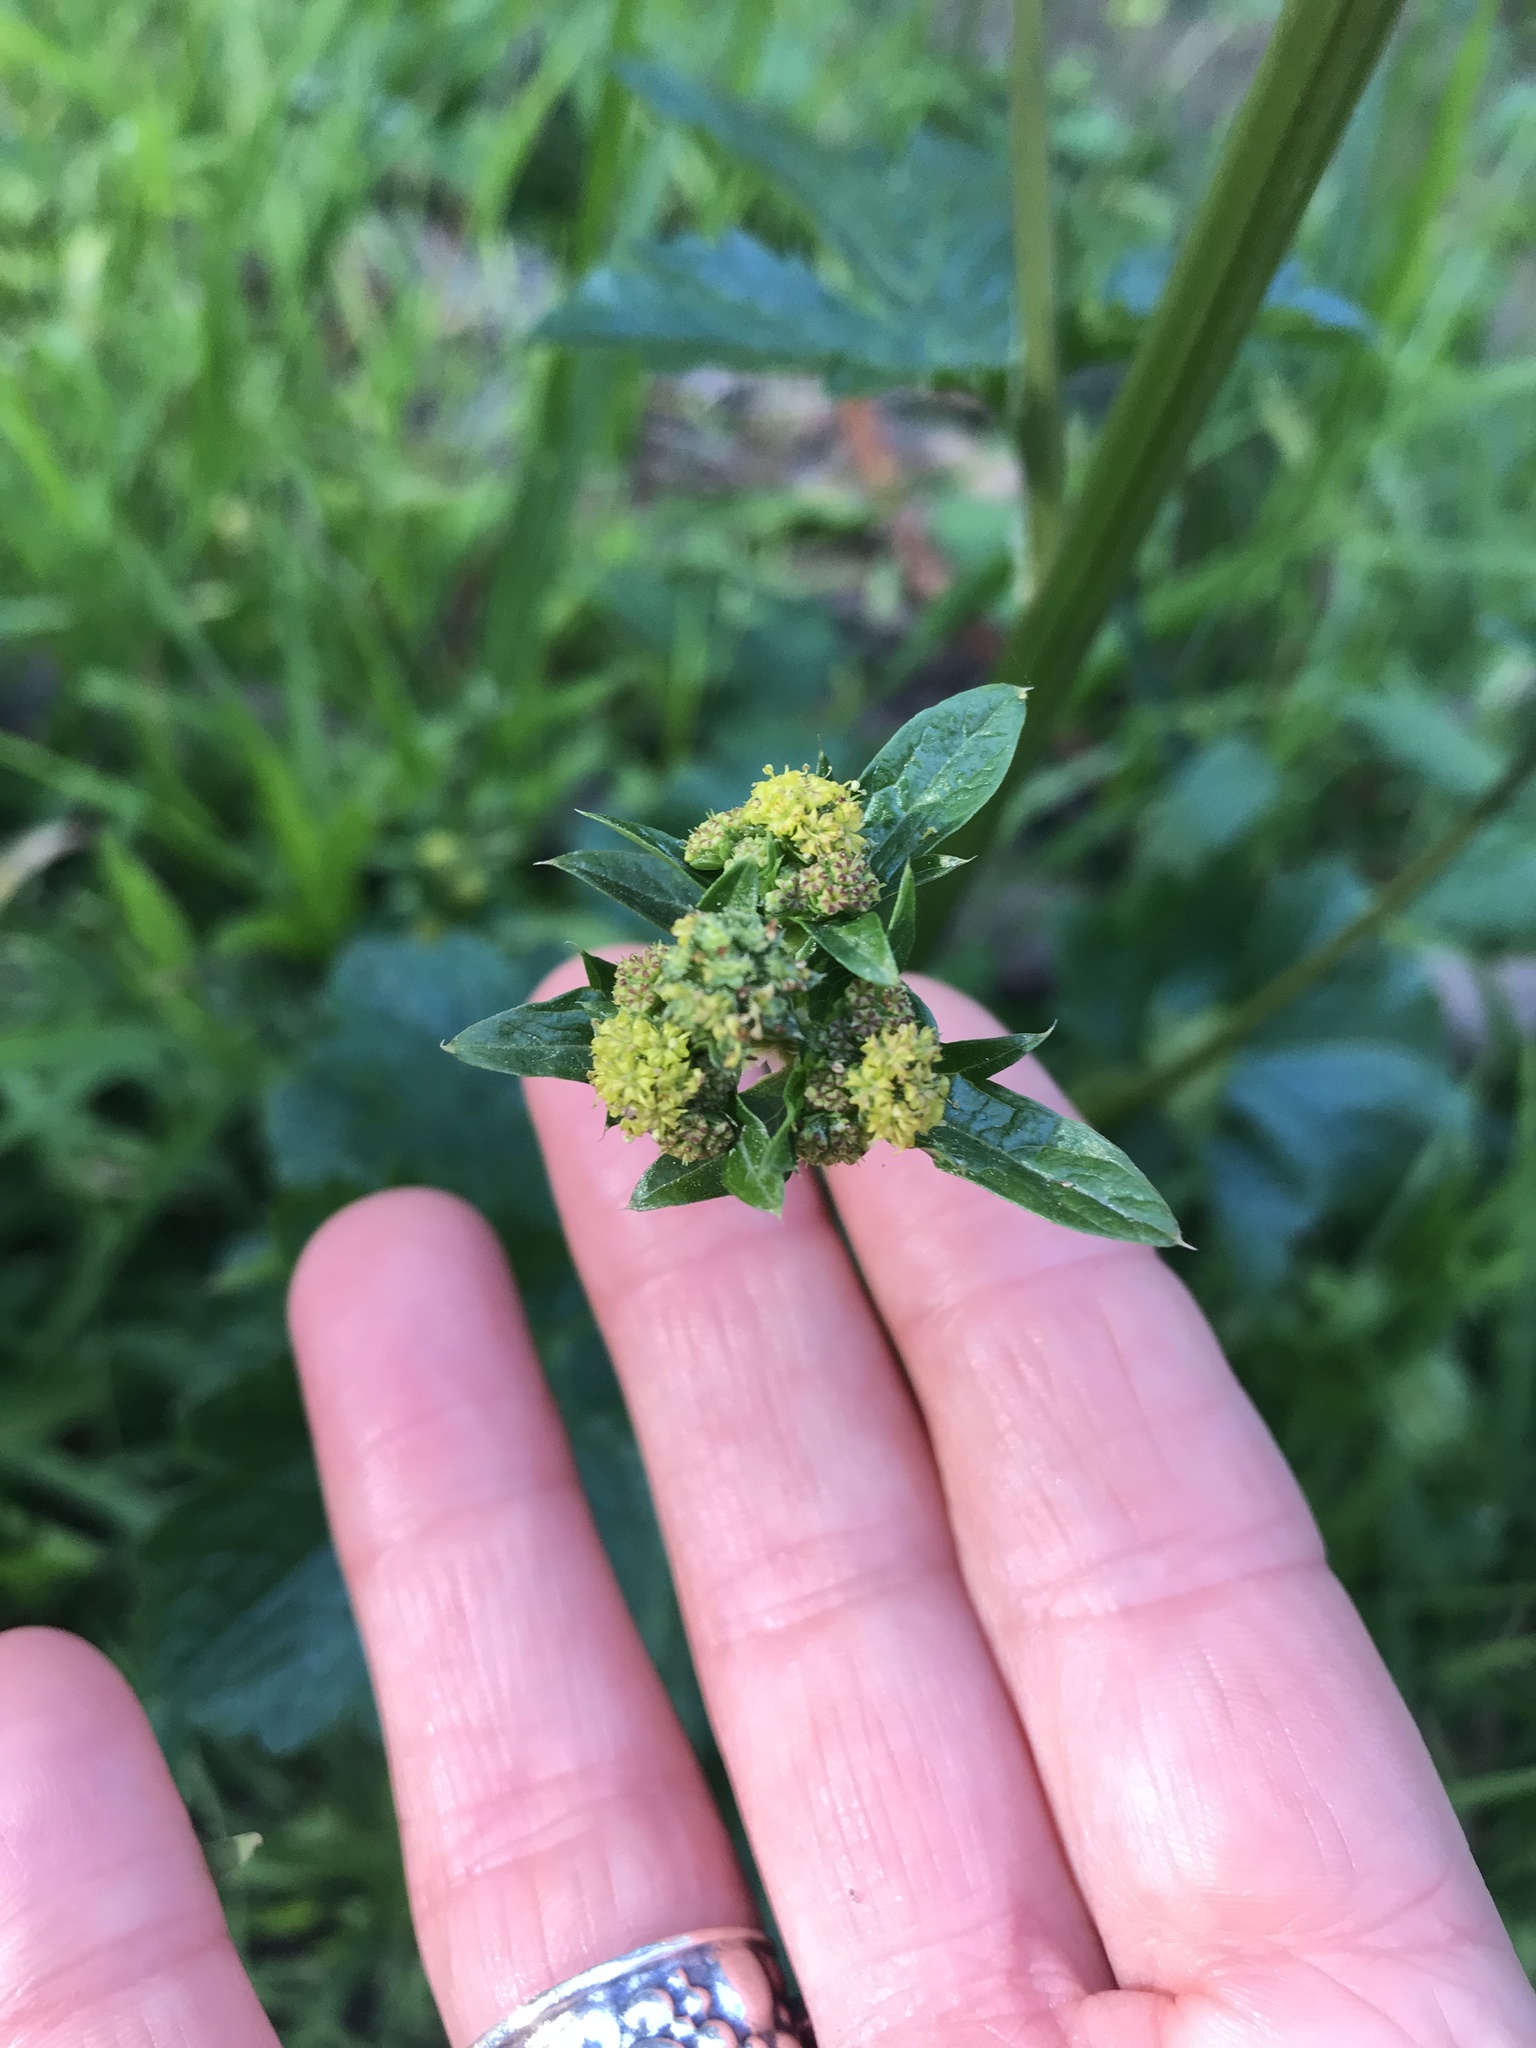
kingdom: Plantae
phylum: Tracheophyta
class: Magnoliopsida
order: Apiales
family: Apiaceae
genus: Sanicula
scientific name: Sanicula crassicaulis
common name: Western snakeroot
